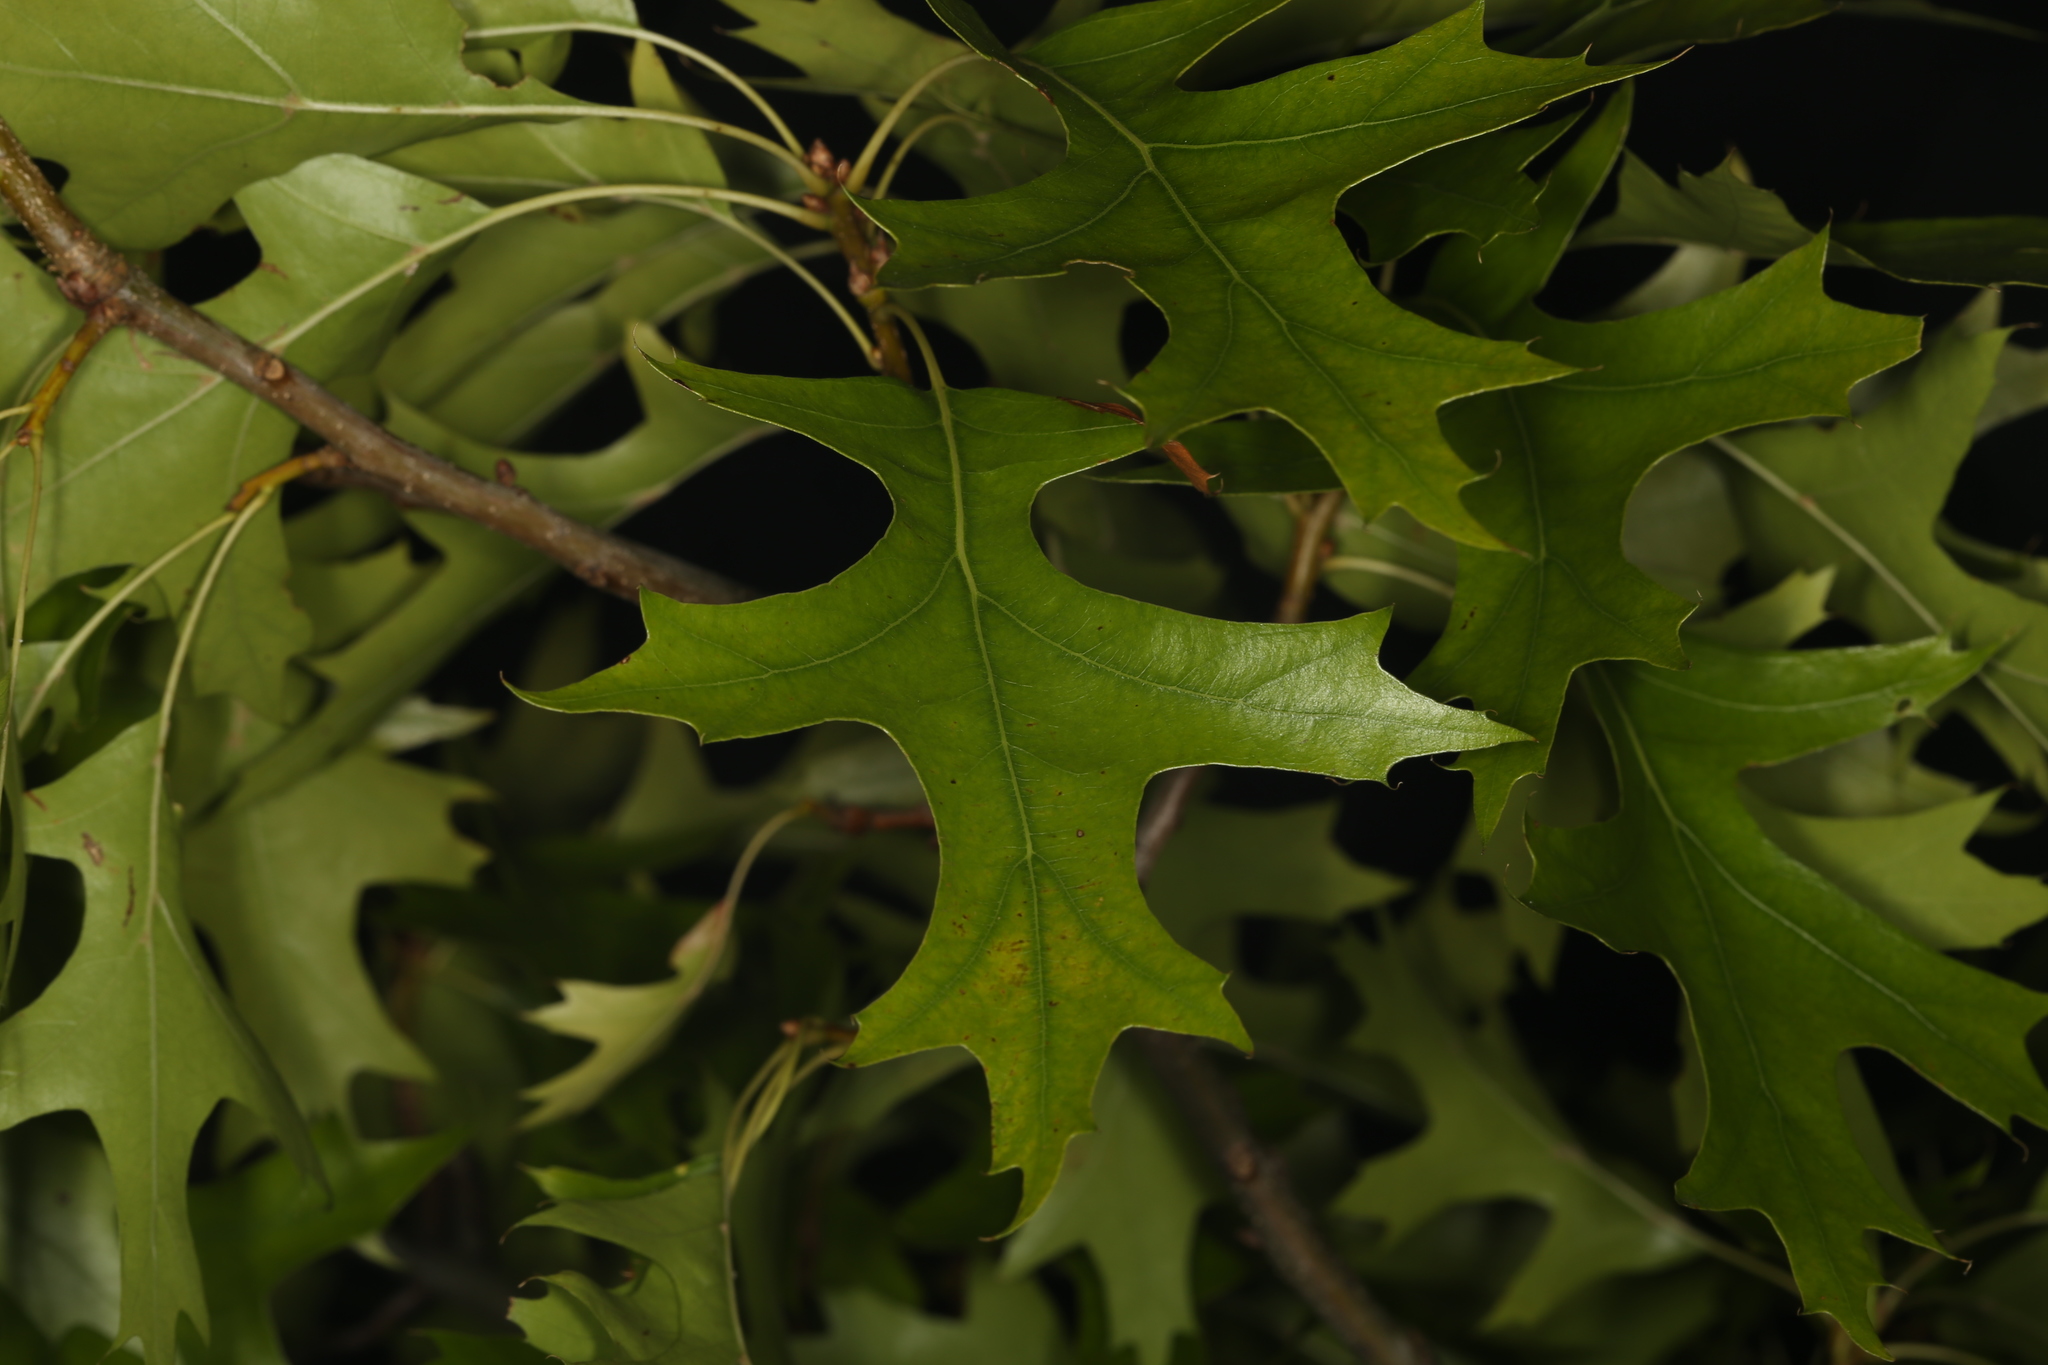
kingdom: Plantae
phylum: Tracheophyta
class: Magnoliopsida
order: Fagales
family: Fagaceae
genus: Quercus
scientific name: Quercus rubra
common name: Red oak
